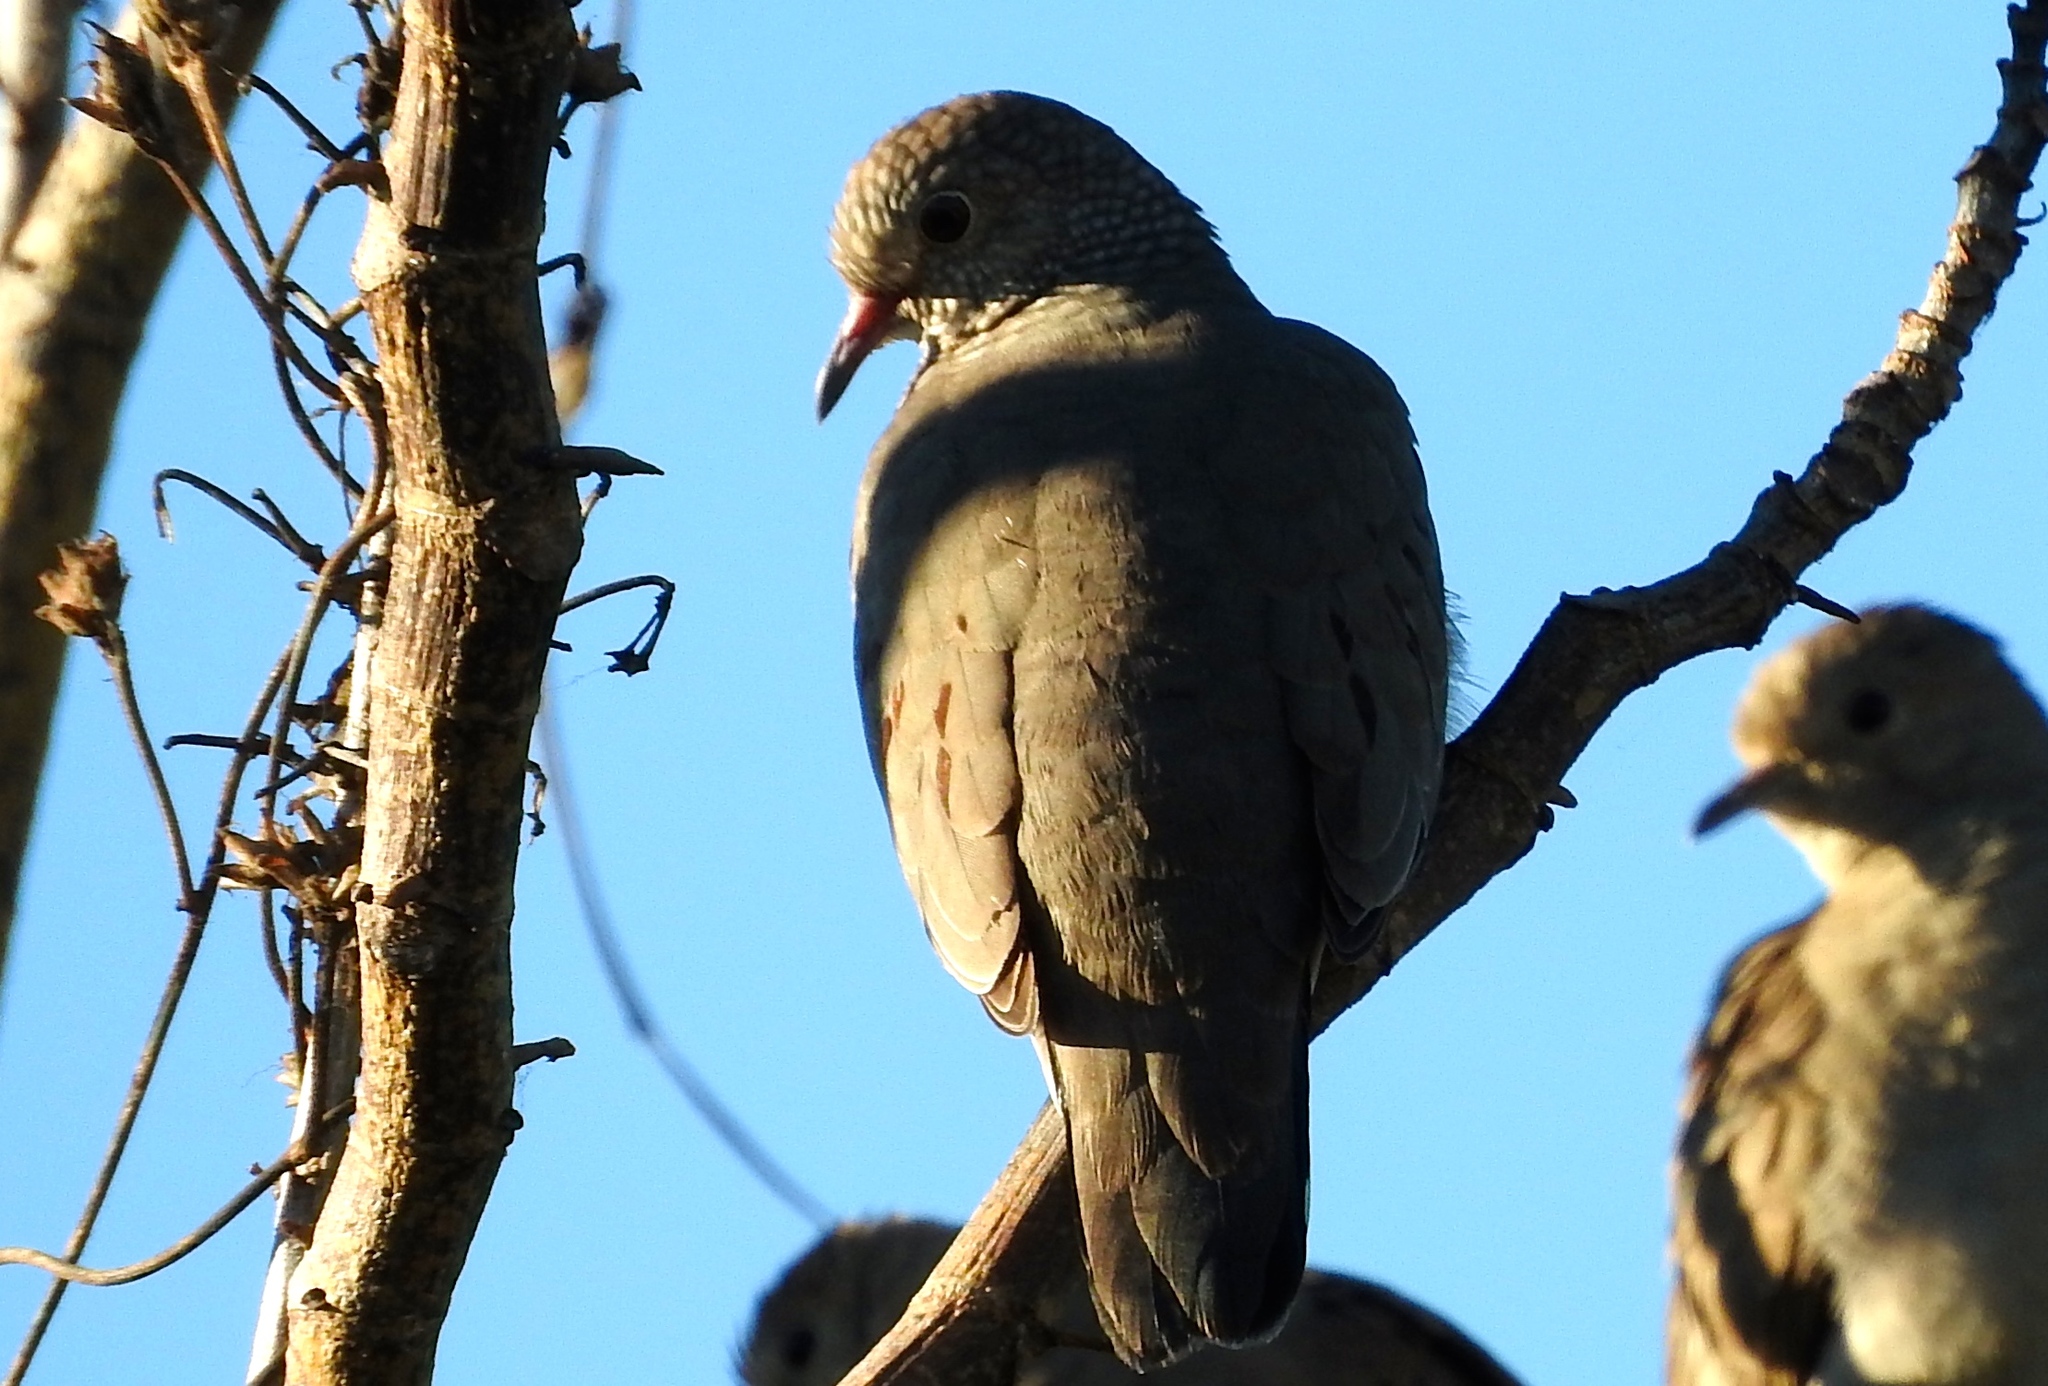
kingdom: Animalia
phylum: Chordata
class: Aves
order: Columbiformes
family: Columbidae
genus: Columbina
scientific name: Columbina passerina
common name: Common ground-dove
